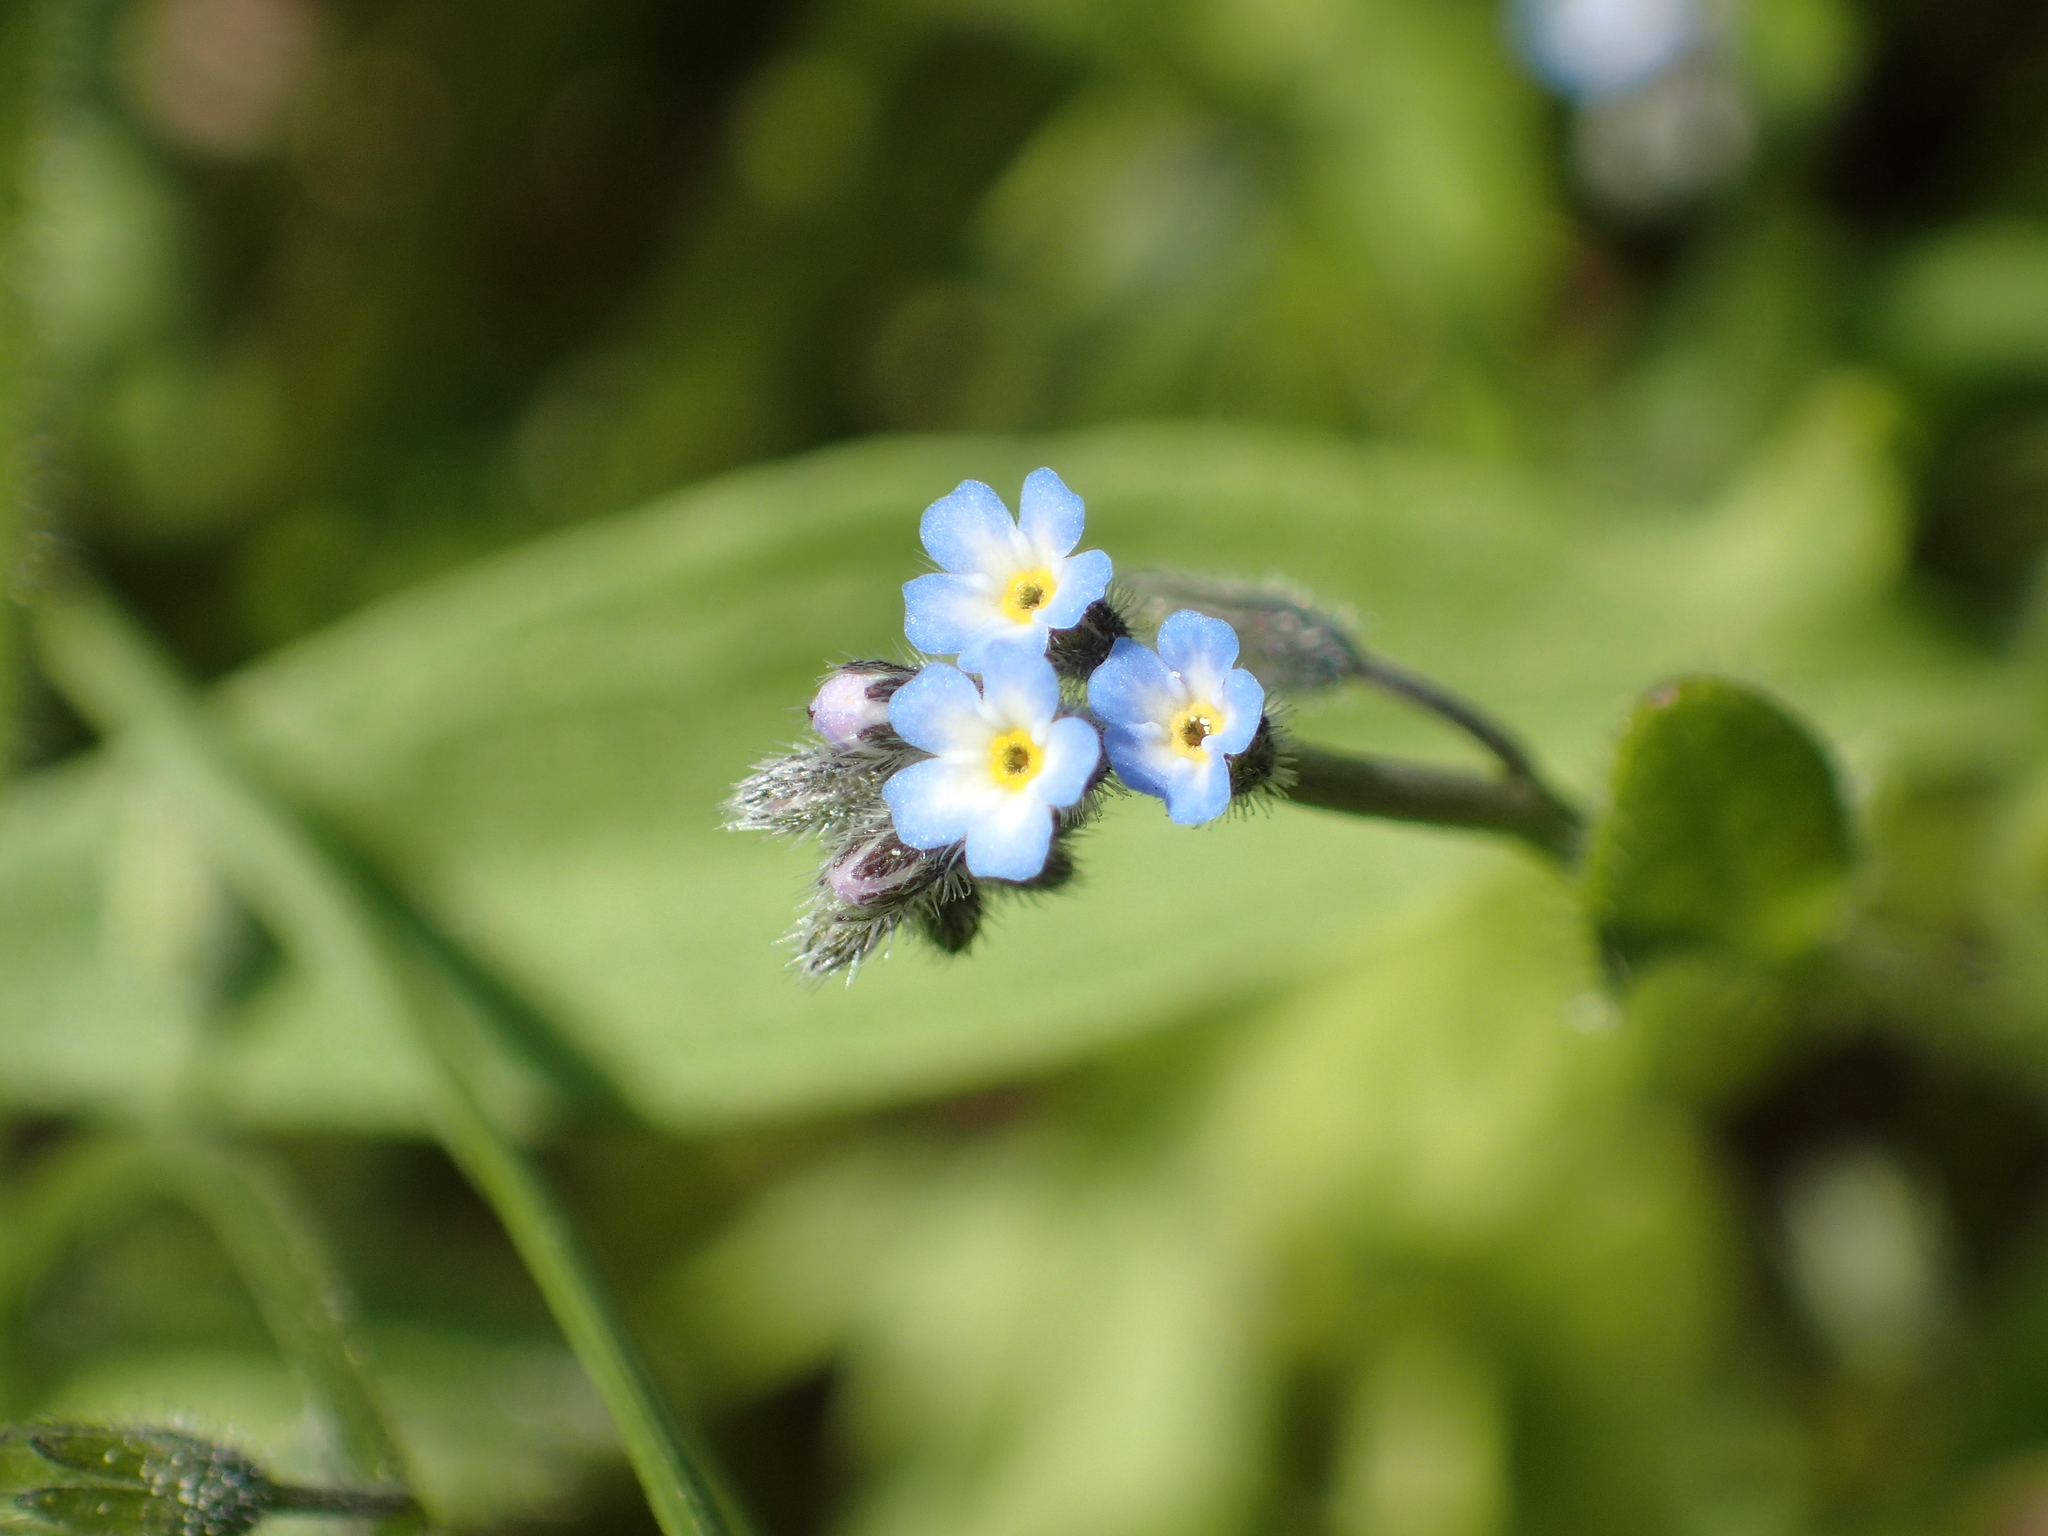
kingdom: Plantae
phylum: Tracheophyta
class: Magnoliopsida
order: Boraginales
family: Boraginaceae
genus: Myosotis
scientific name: Myosotis arvensis
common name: Field forget-me-not
